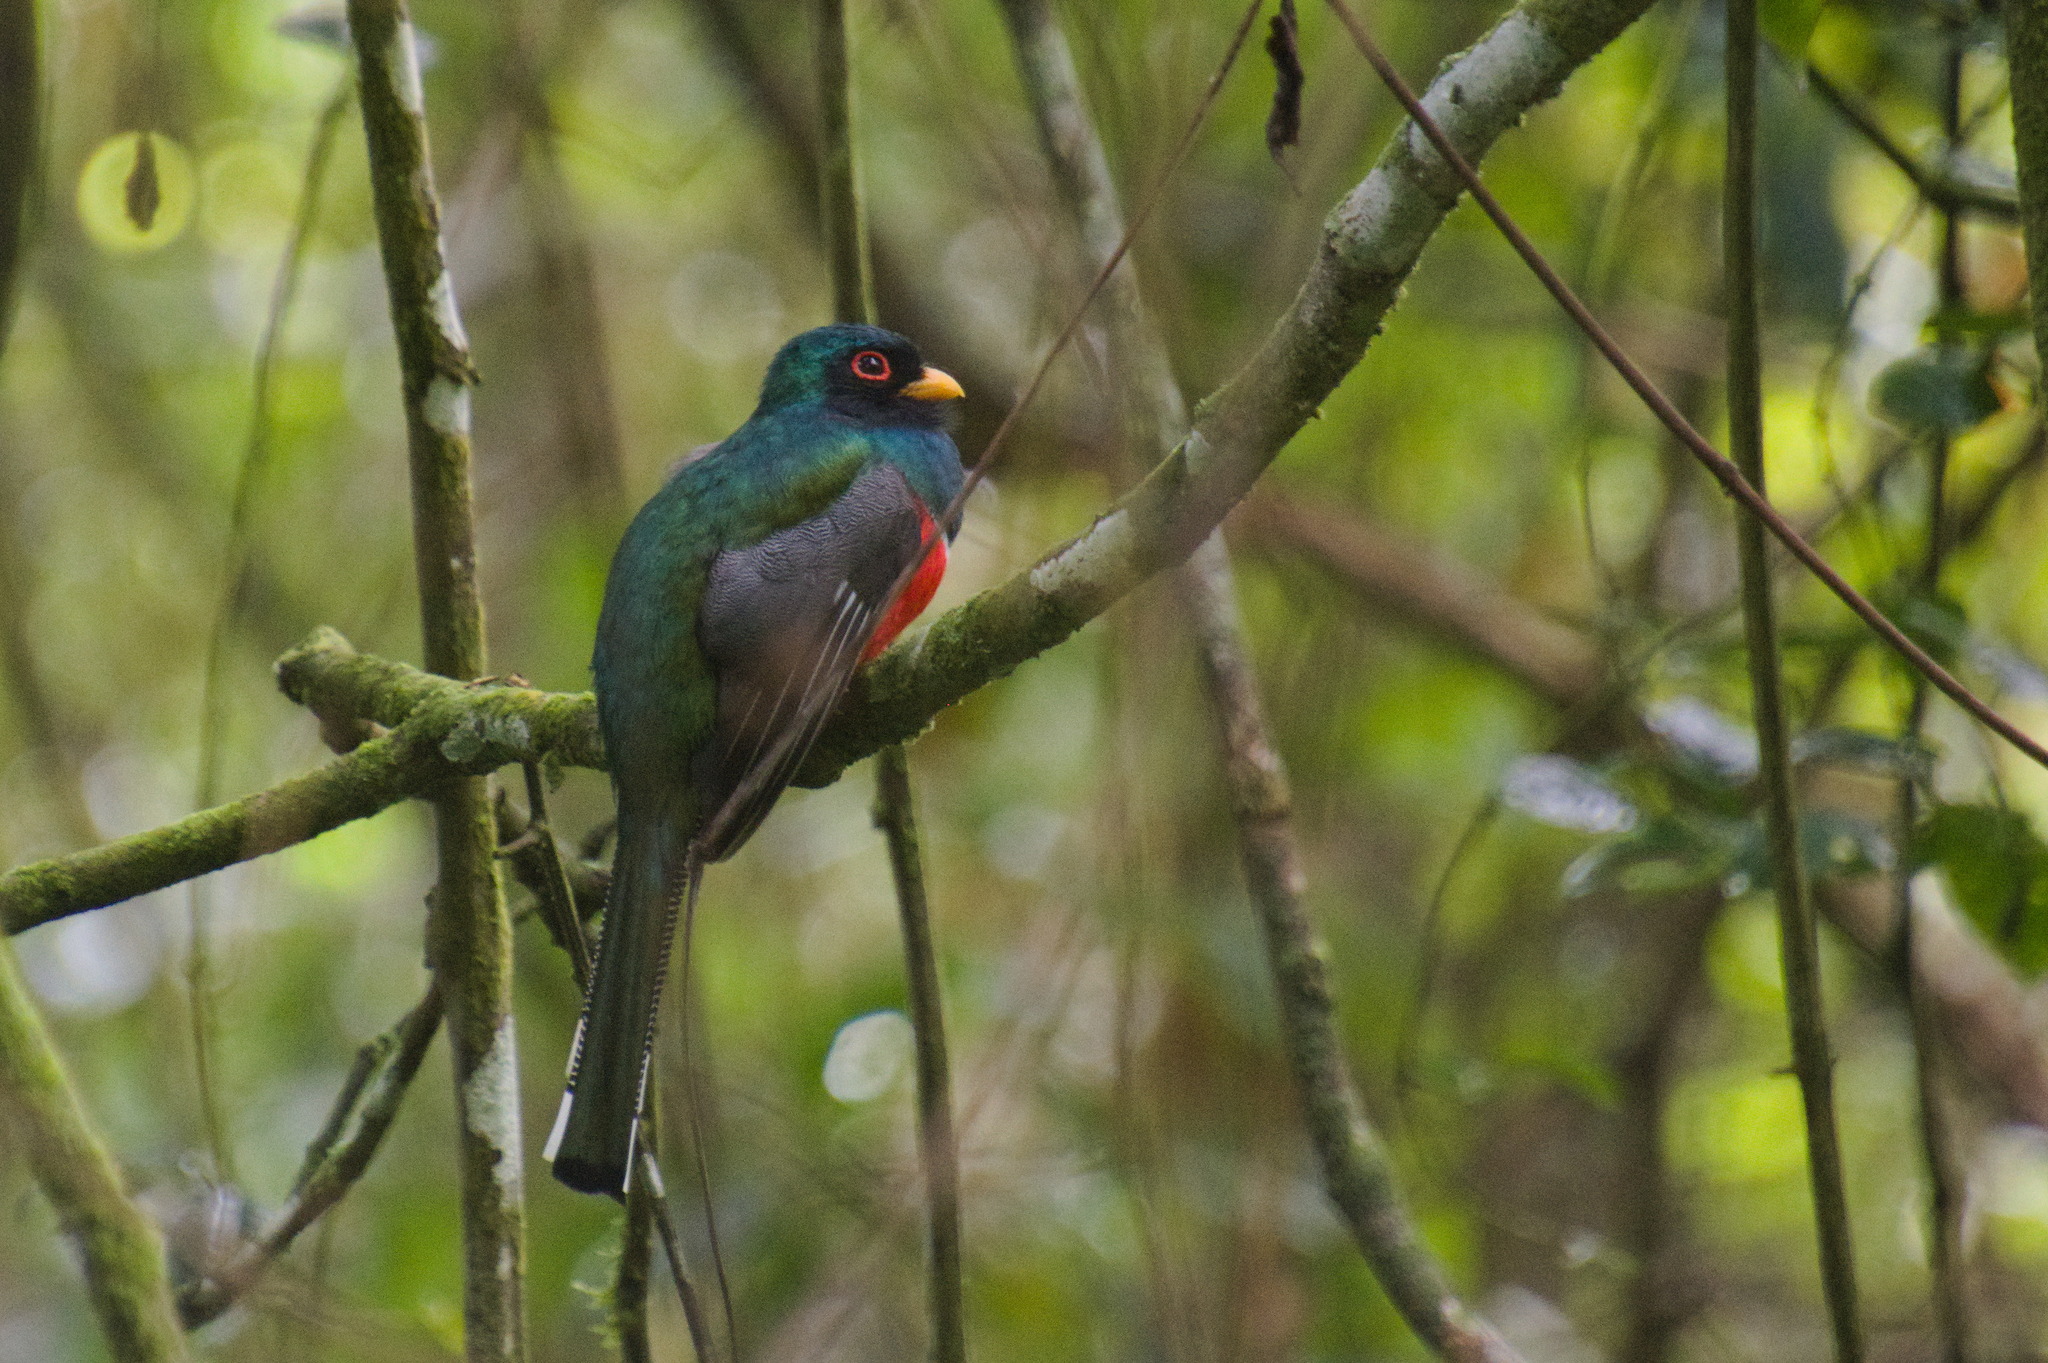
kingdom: Animalia
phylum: Chordata
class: Aves
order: Trogoniformes
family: Trogonidae
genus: Trogon
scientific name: Trogon personatus
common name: Masked trogon
